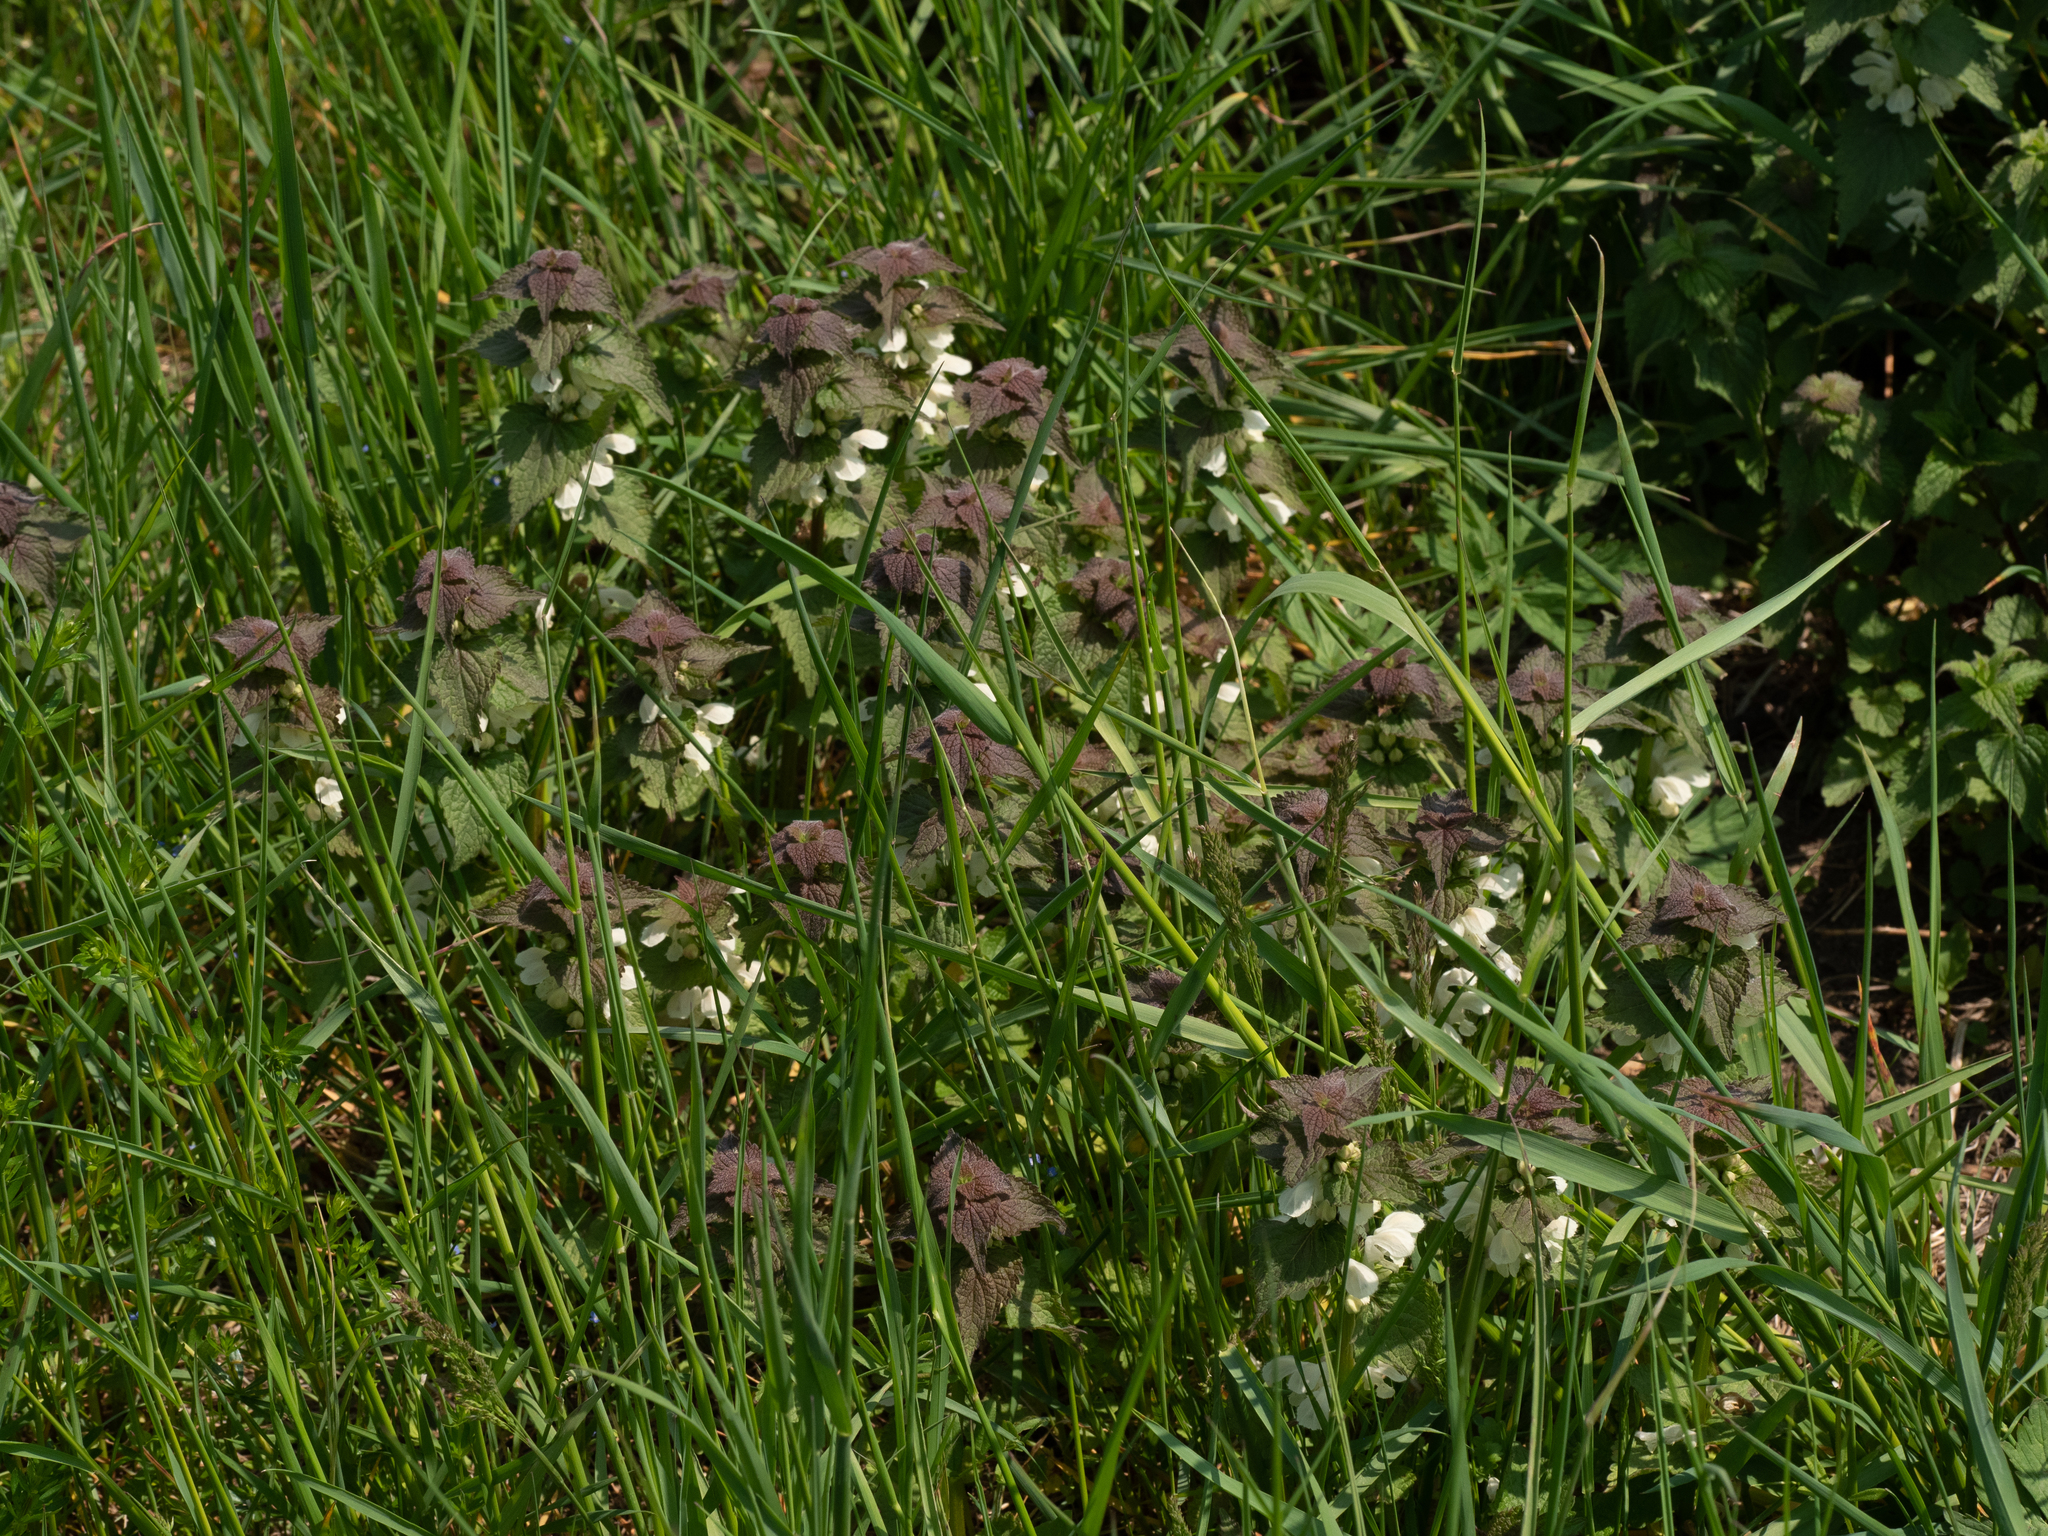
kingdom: Plantae
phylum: Tracheophyta
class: Magnoliopsida
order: Lamiales
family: Lamiaceae
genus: Lamium
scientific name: Lamium album
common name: White dead-nettle
